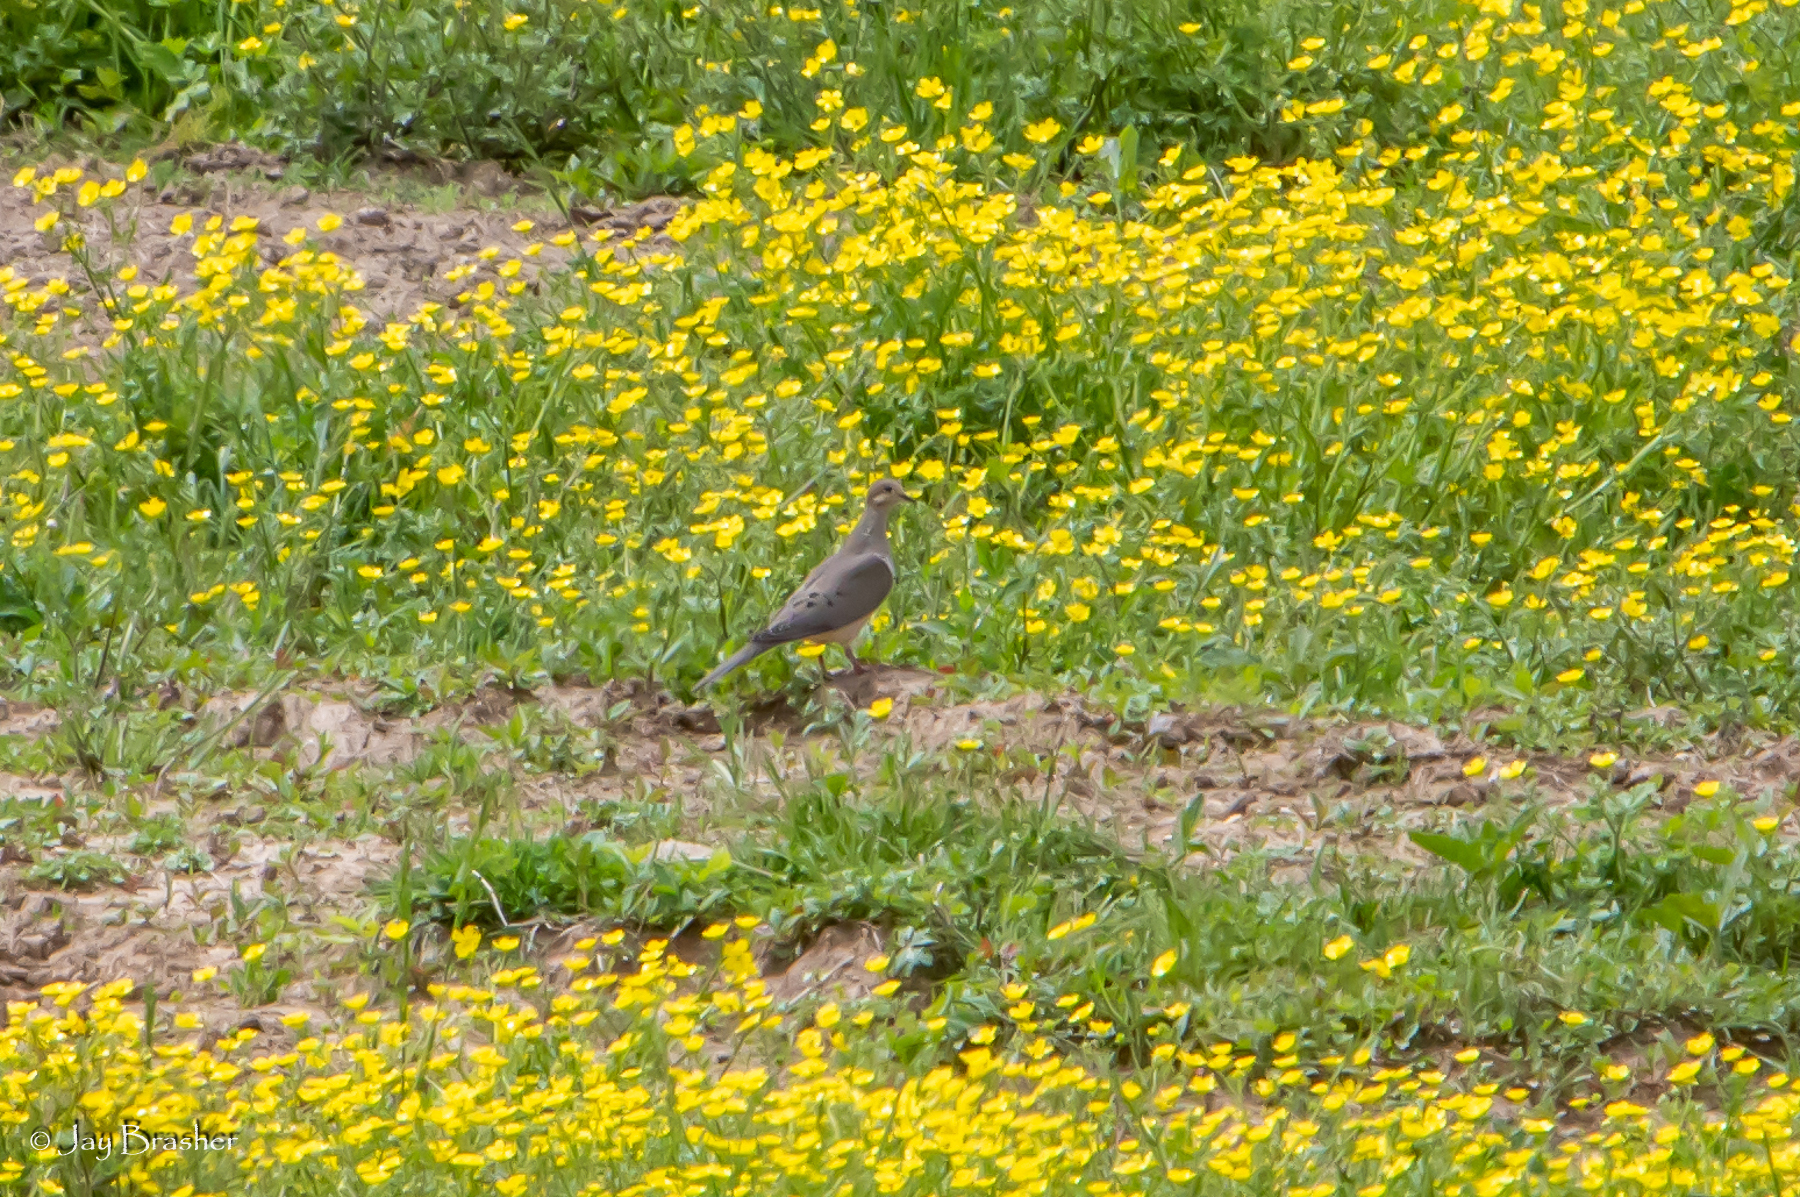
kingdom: Animalia
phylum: Chordata
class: Aves
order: Columbiformes
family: Columbidae
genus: Zenaida
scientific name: Zenaida macroura
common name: Mourning dove
